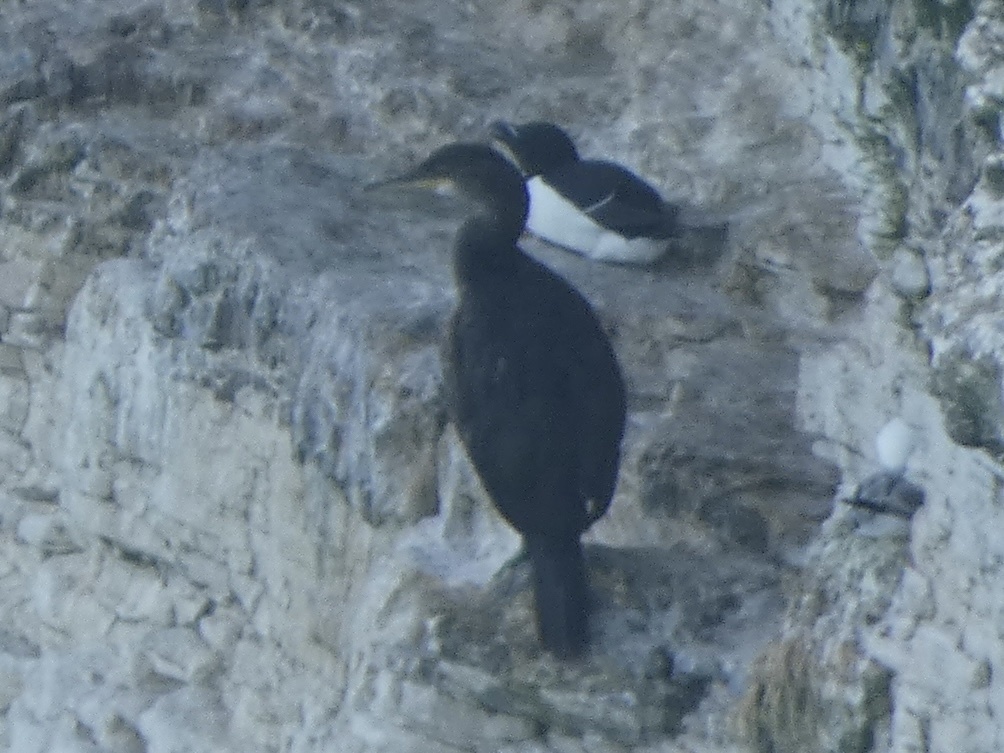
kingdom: Animalia
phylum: Chordata
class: Aves
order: Suliformes
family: Phalacrocoracidae
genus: Phalacrocorax
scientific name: Phalacrocorax aristotelis
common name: European shag
